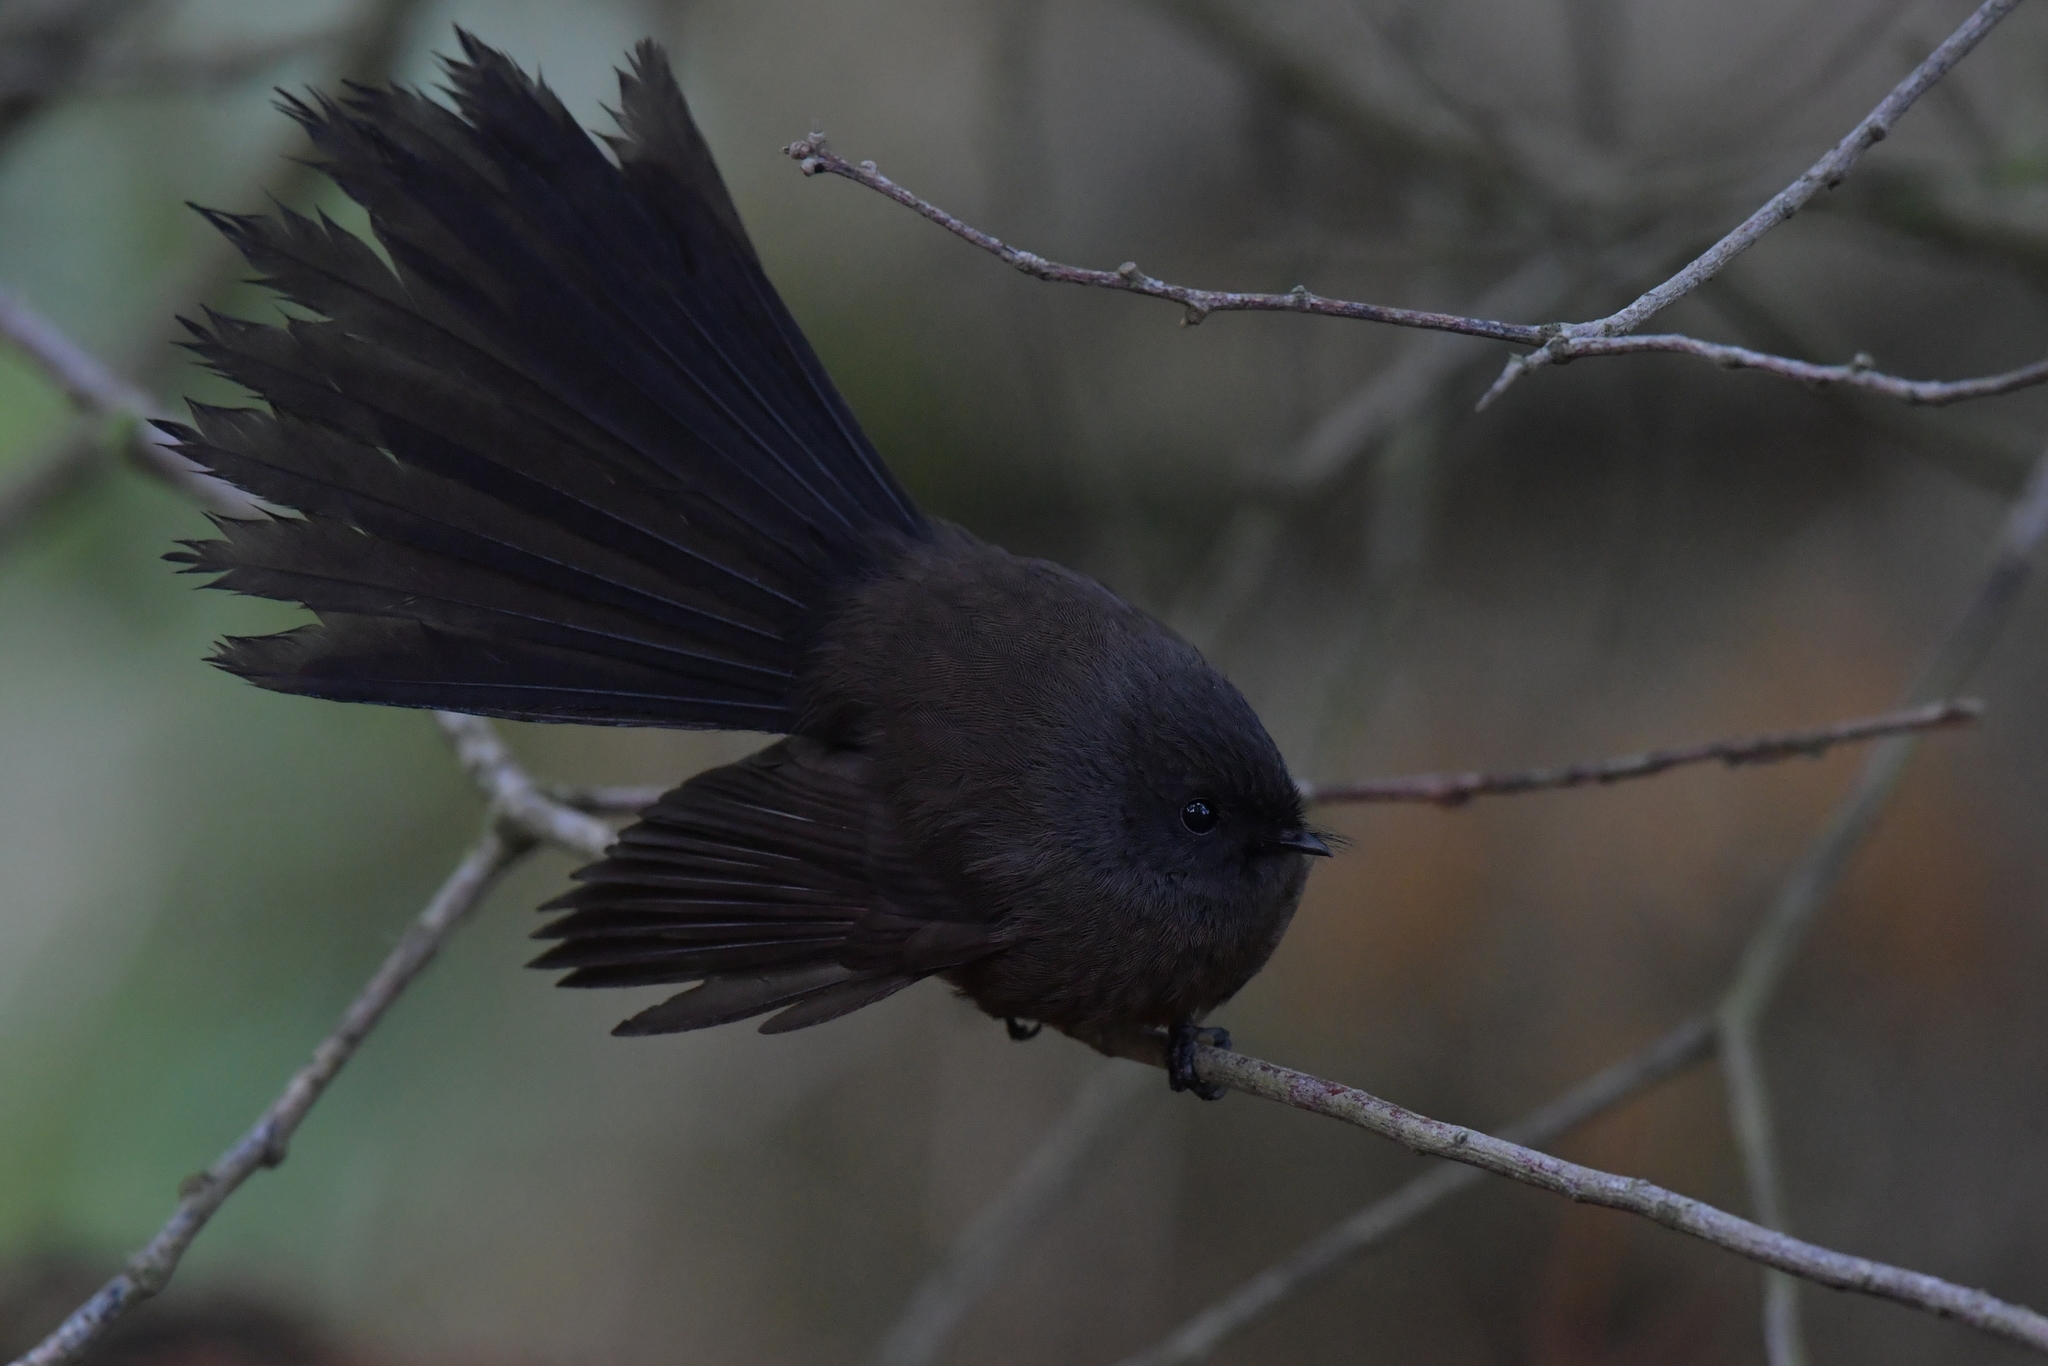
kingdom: Animalia
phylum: Chordata
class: Aves
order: Passeriformes
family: Rhipiduridae
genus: Rhipidura
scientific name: Rhipidura fuliginosa
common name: New zealand fantail
